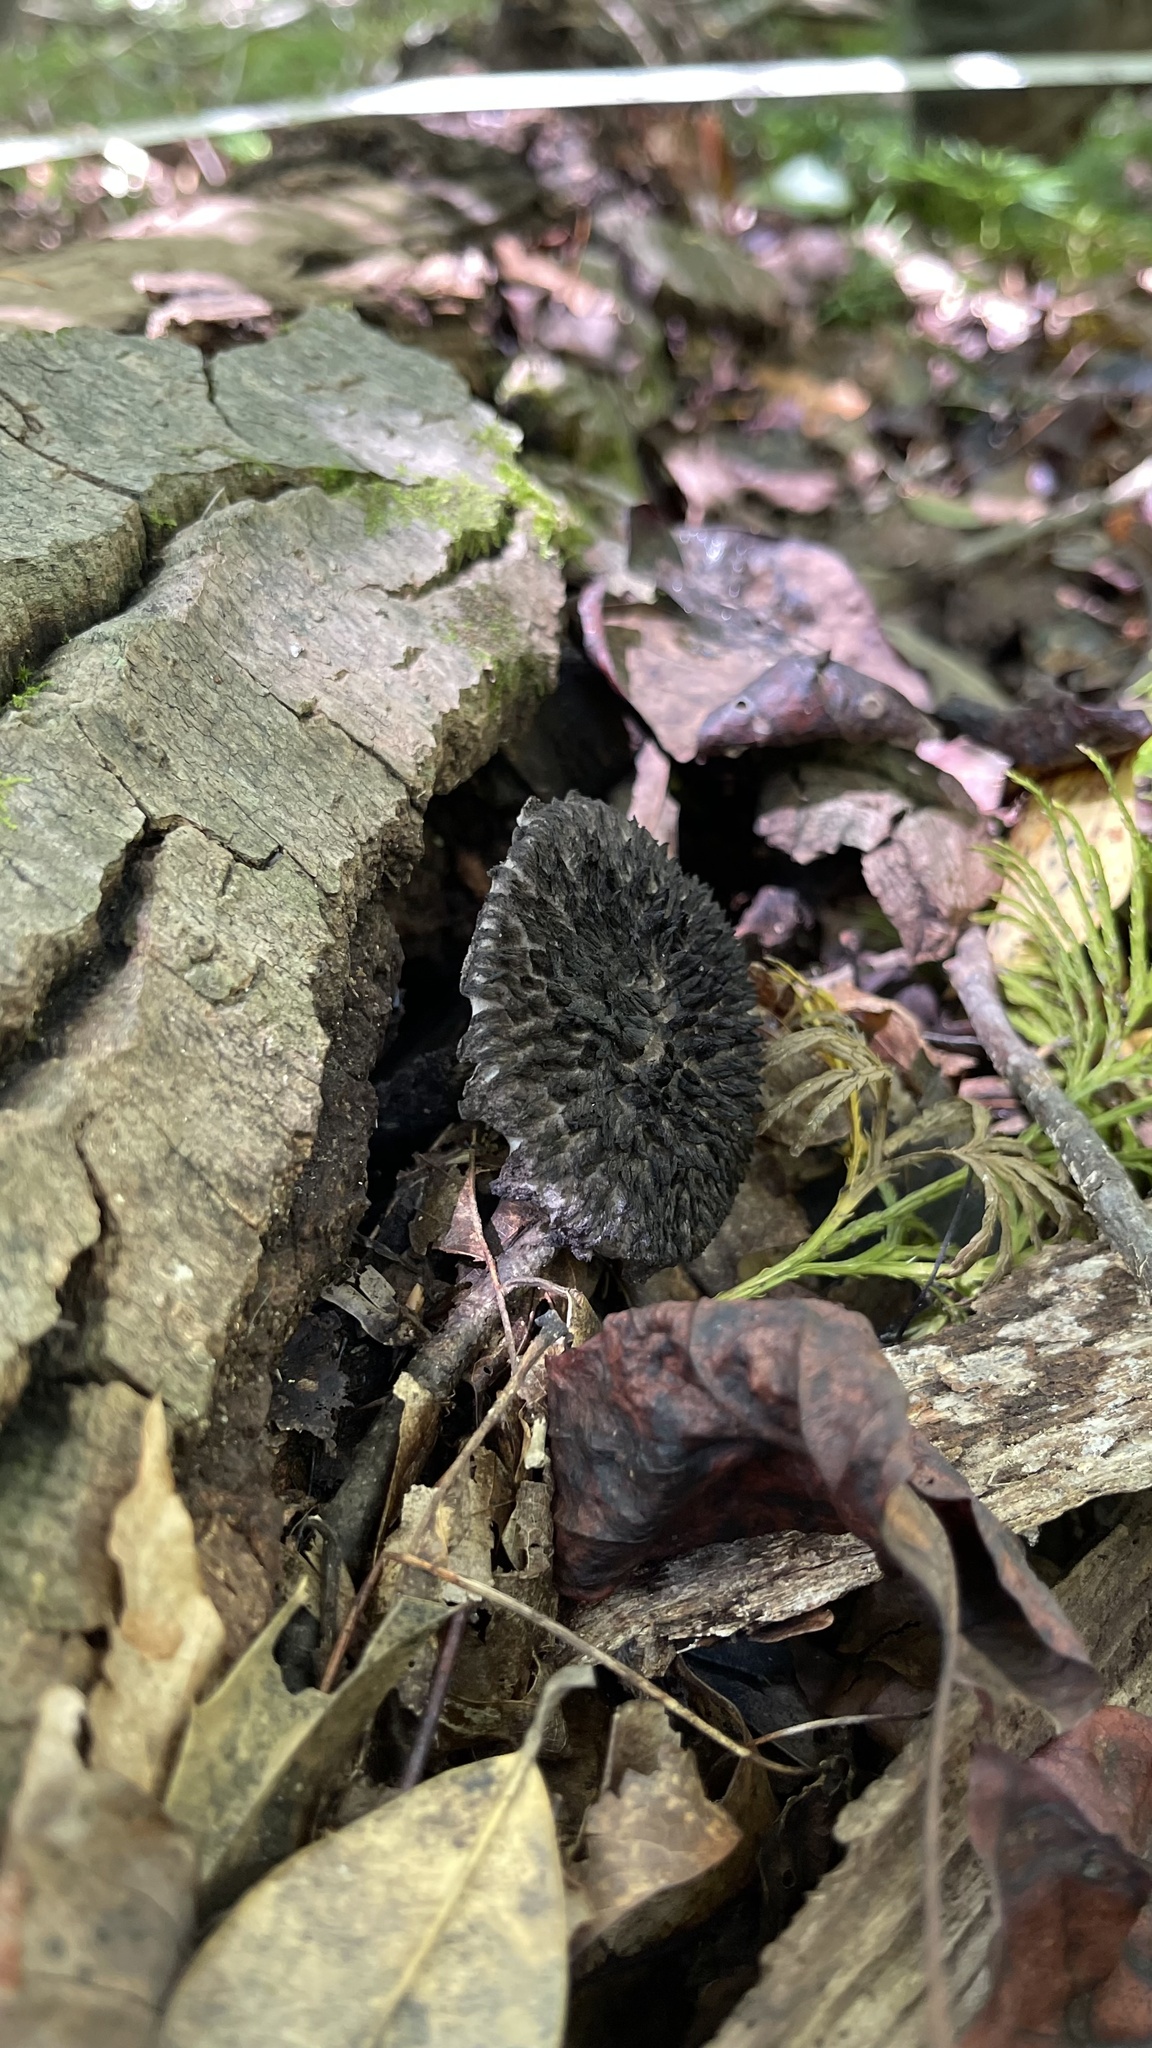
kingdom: Fungi
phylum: Basidiomycota
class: Agaricomycetes
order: Boletales
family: Boletaceae
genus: Strobilomyces
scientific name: Strobilomyces strobilaceus
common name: Old man of the woods
